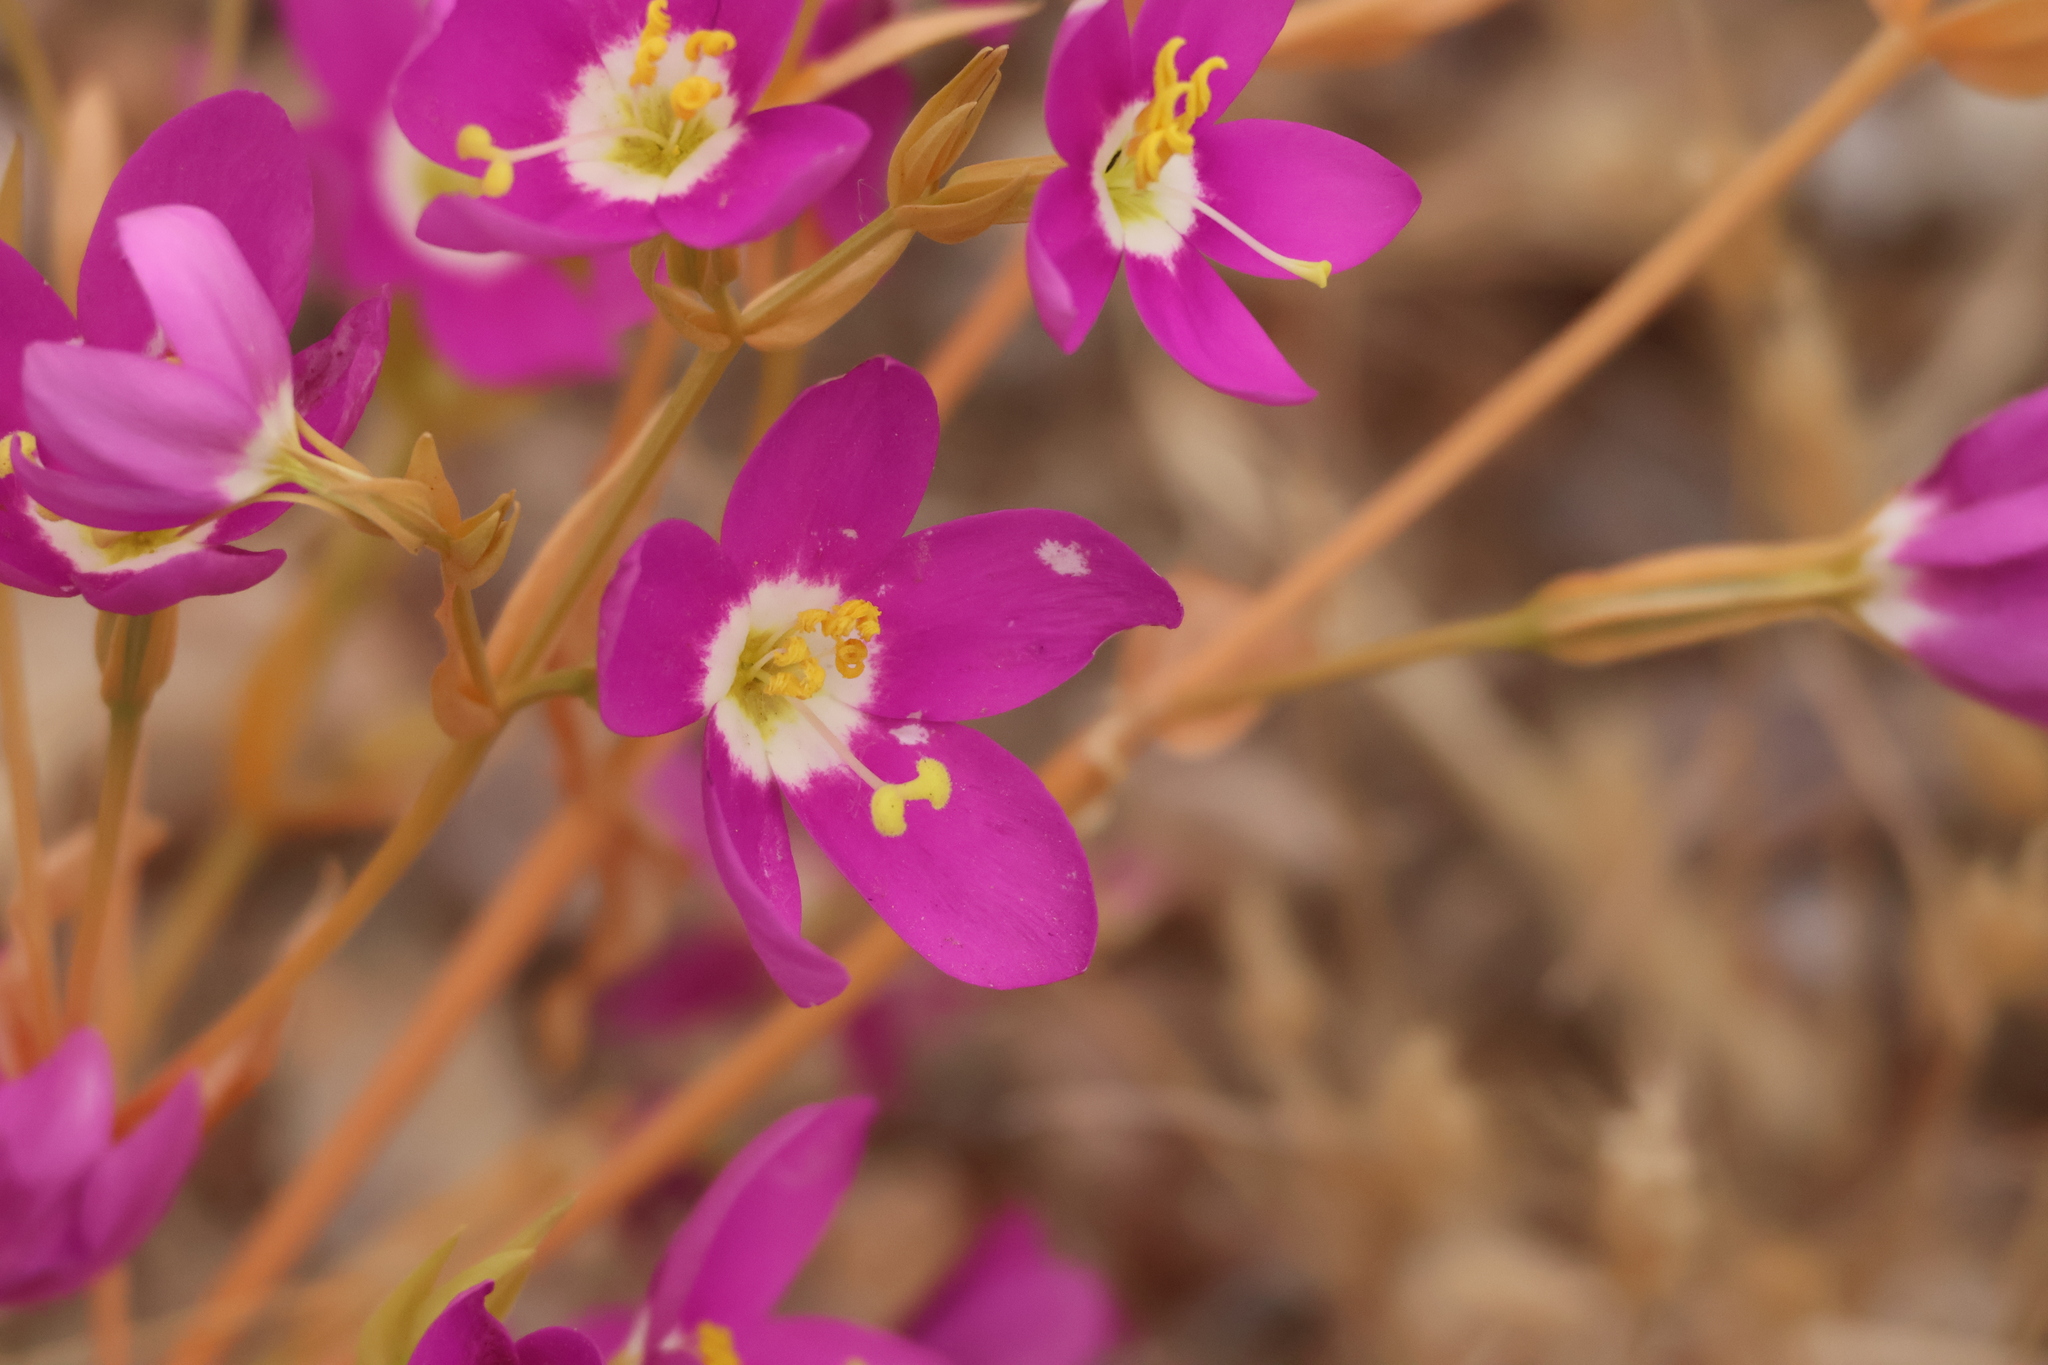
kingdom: Plantae
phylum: Tracheophyta
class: Magnoliopsida
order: Gentianales
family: Gentianaceae
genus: Zeltnera
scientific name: Zeltnera venusta
